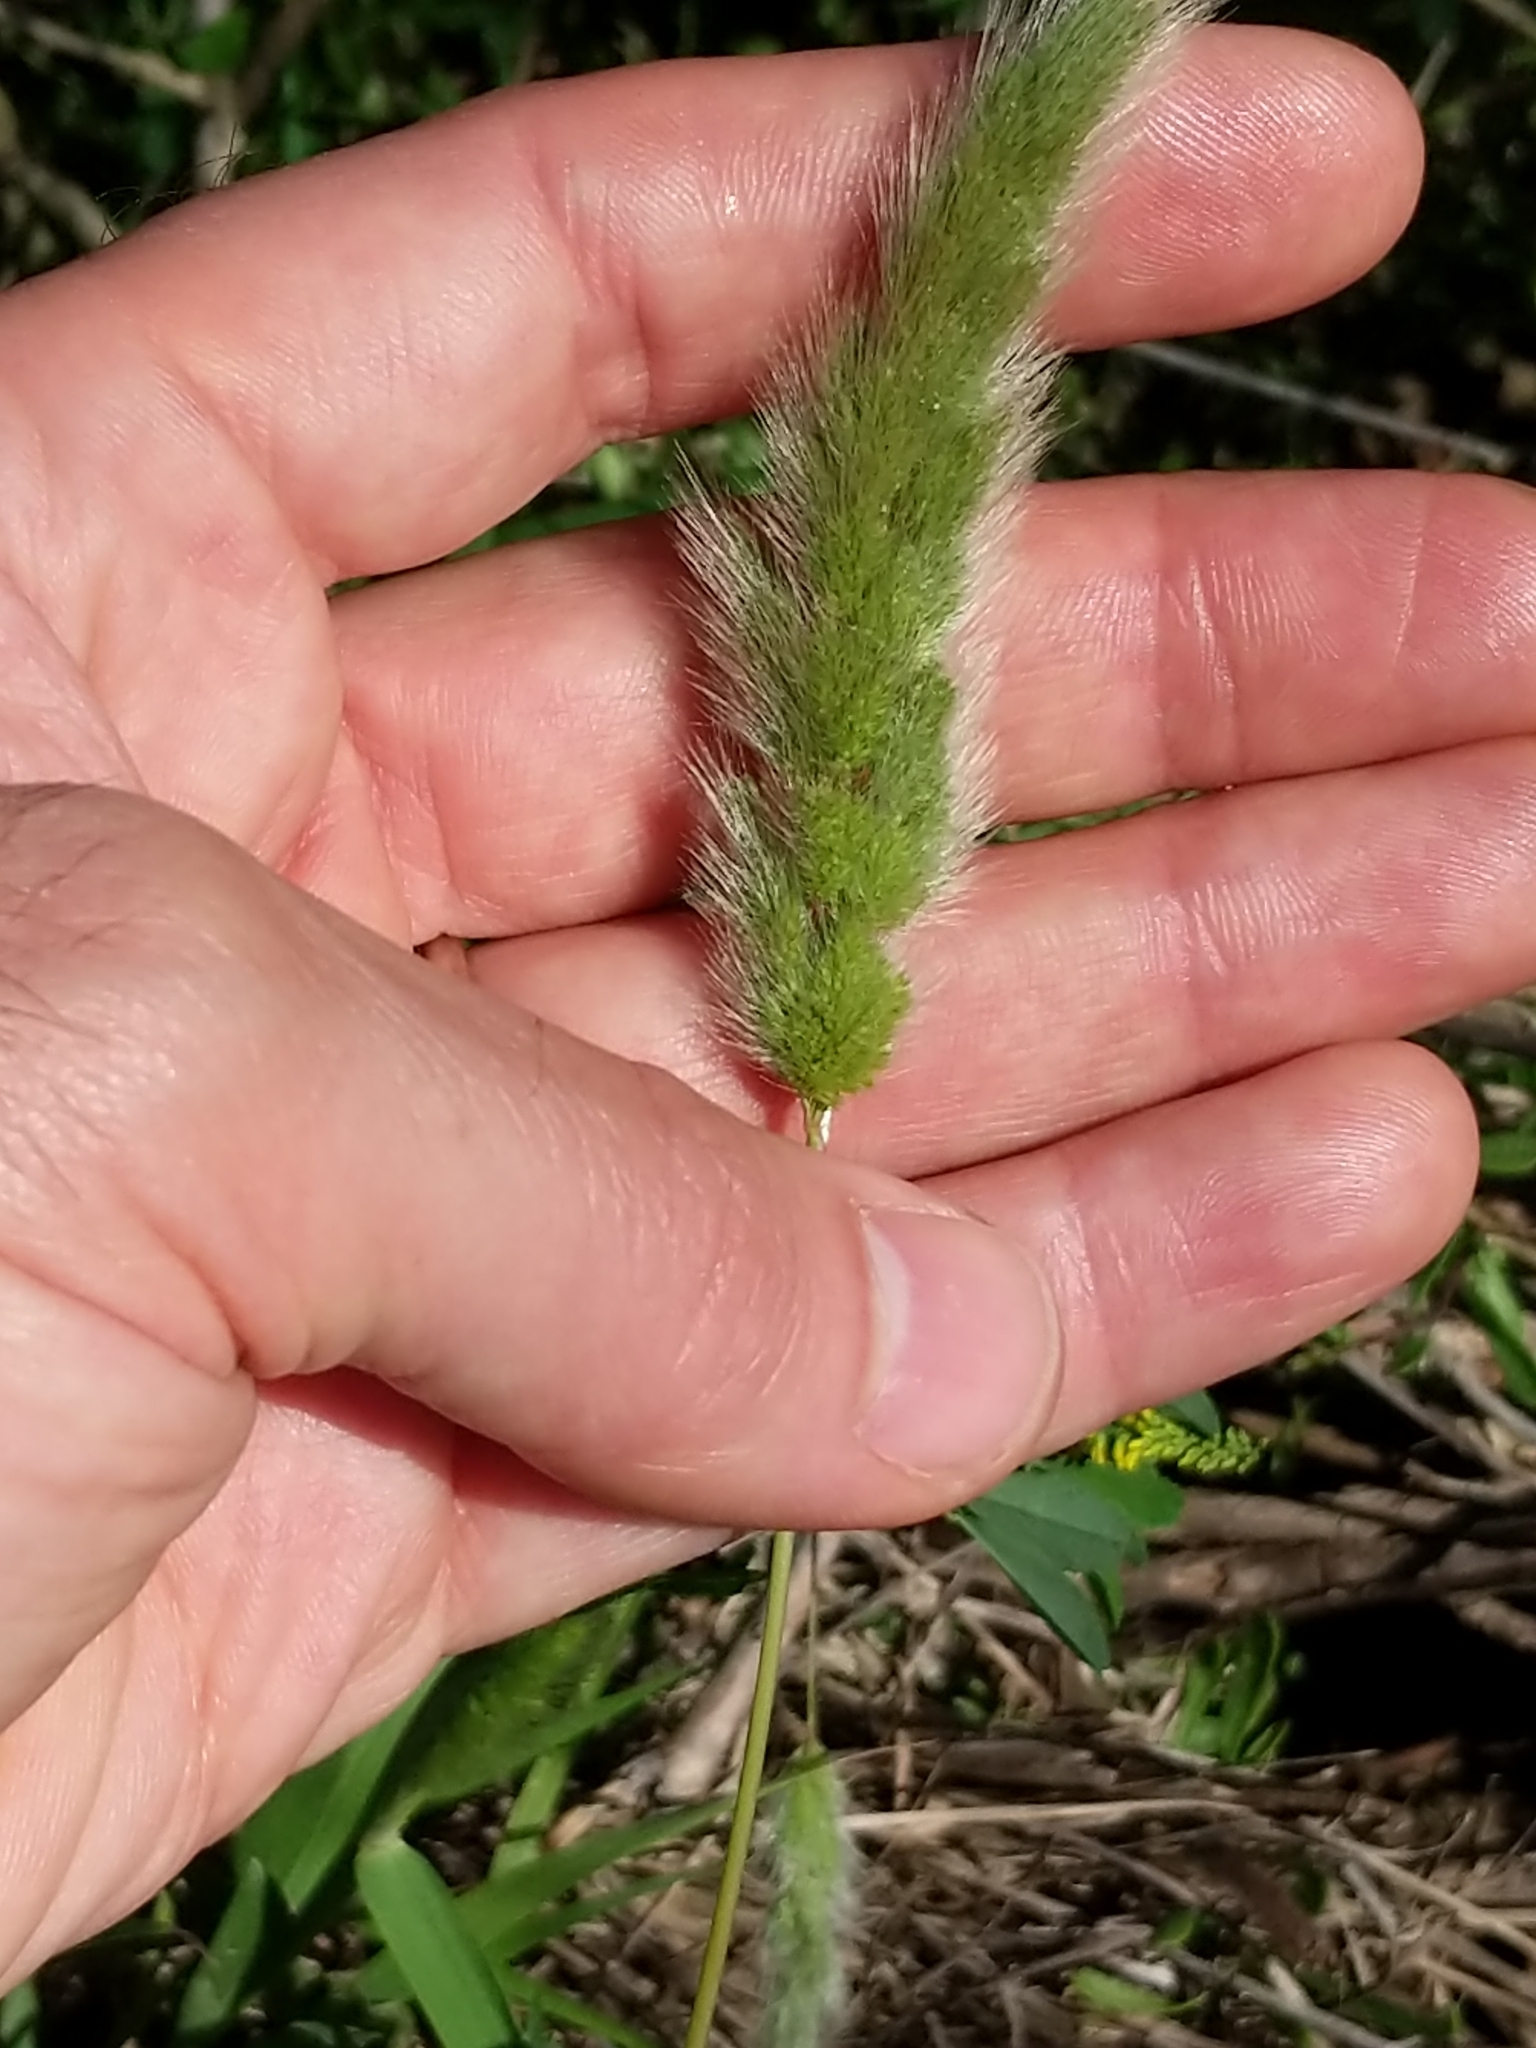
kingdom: Plantae
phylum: Tracheophyta
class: Liliopsida
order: Poales
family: Poaceae
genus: Polypogon
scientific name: Polypogon monspeliensis
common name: Annual rabbitsfoot grass
